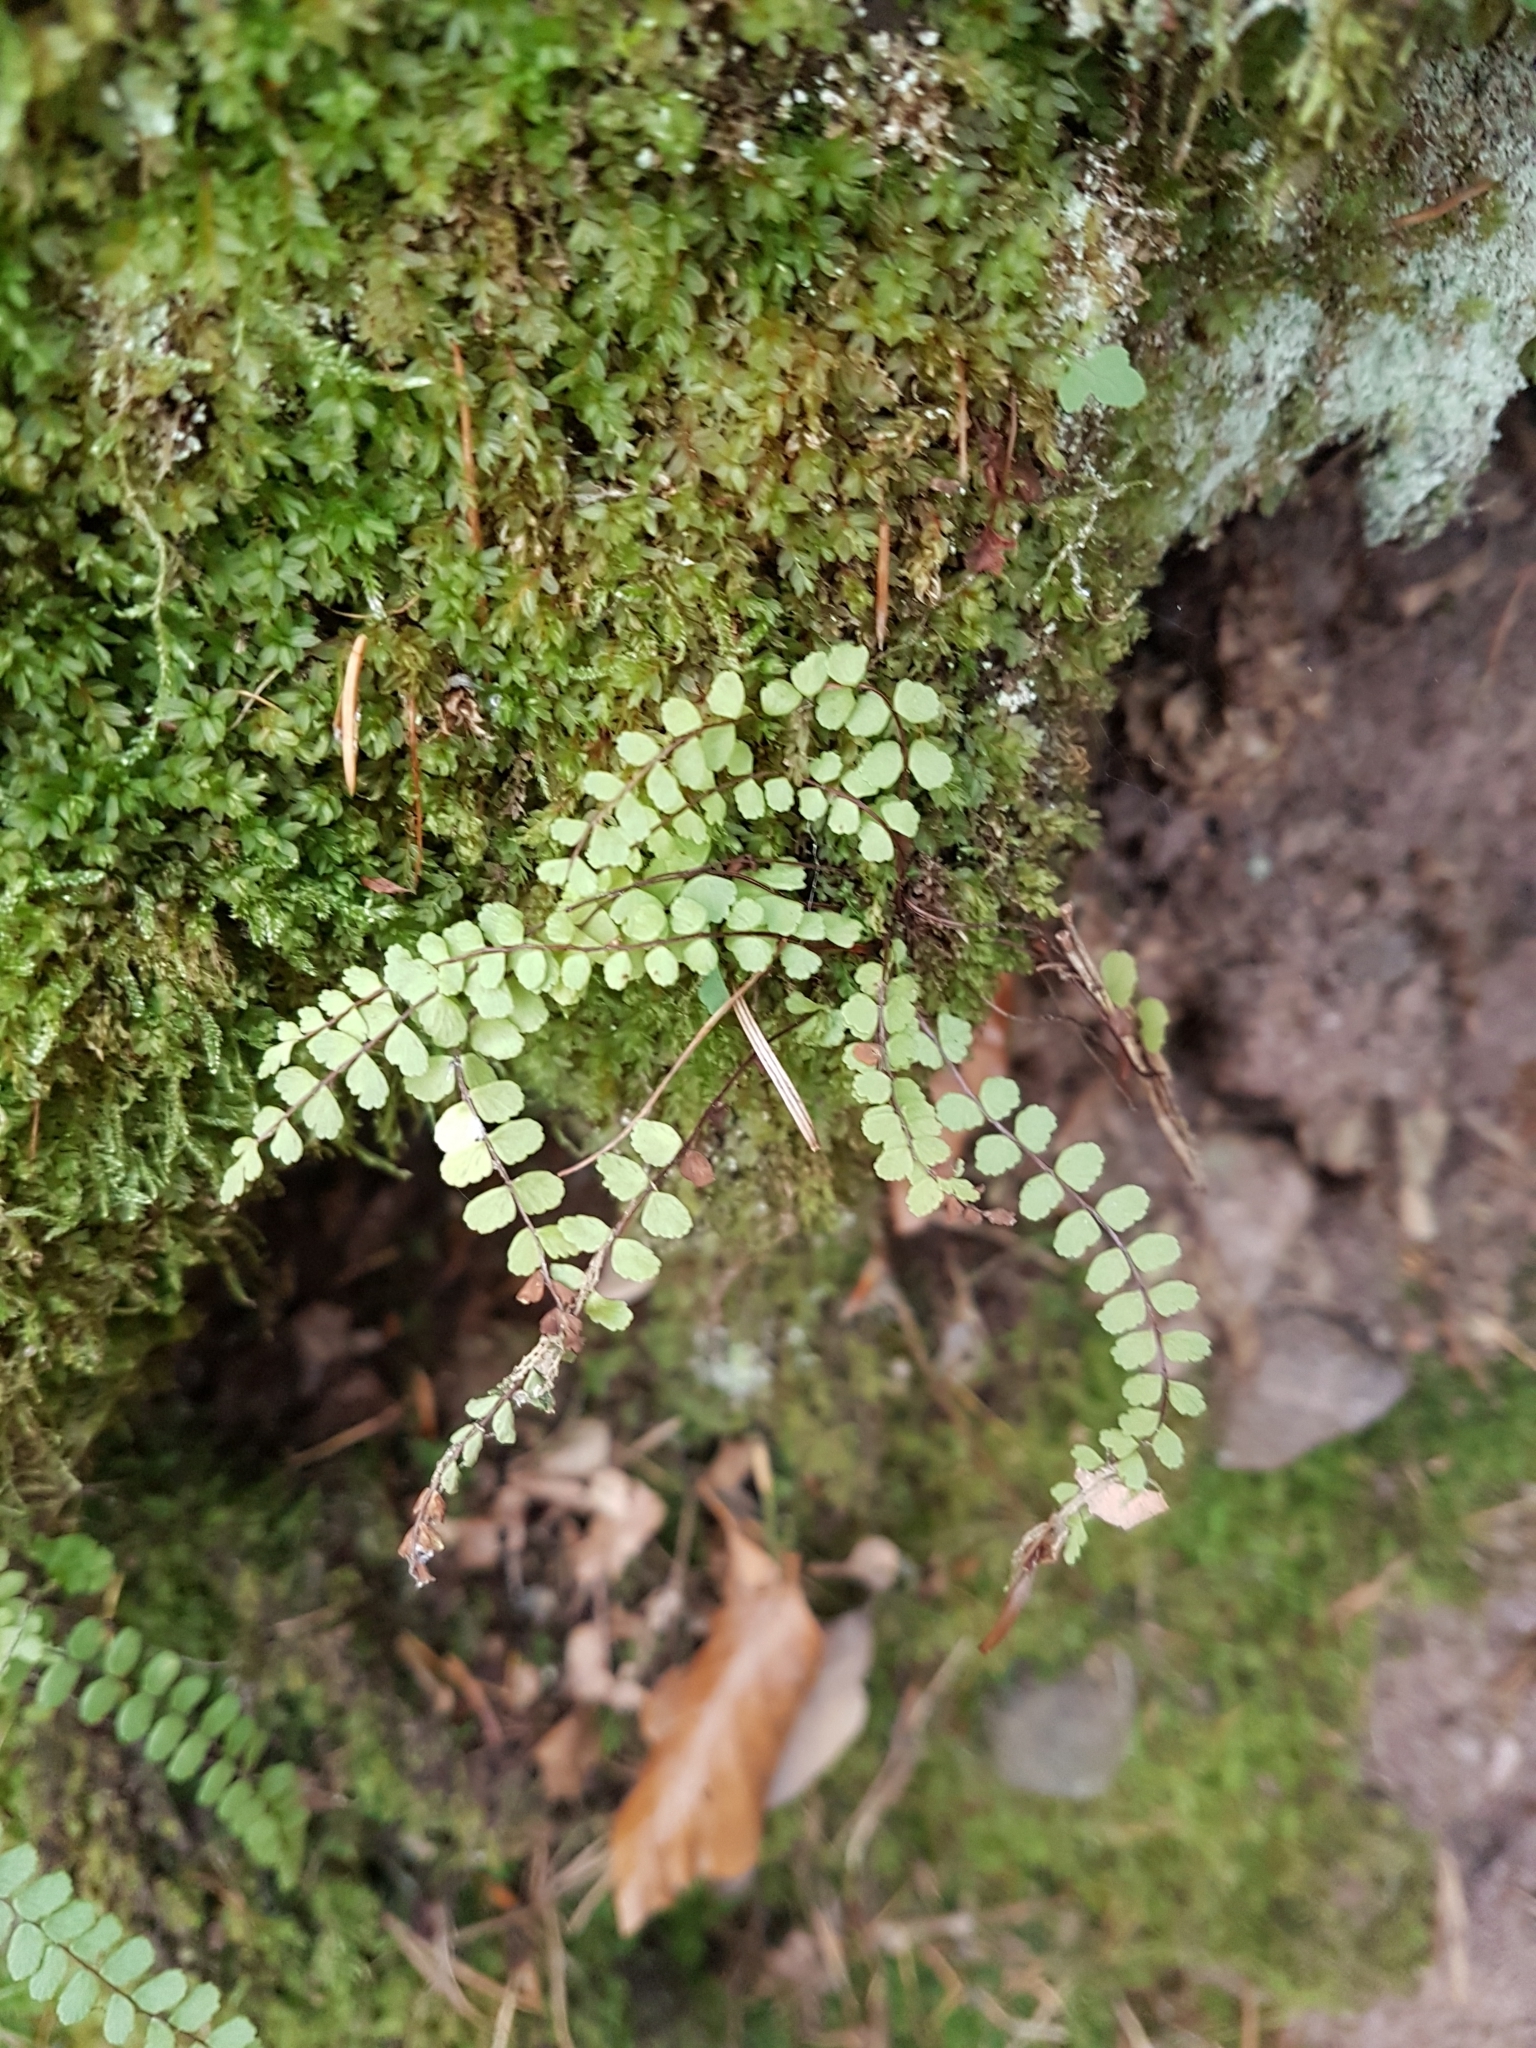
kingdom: Plantae
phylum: Tracheophyta
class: Polypodiopsida
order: Polypodiales
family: Aspleniaceae
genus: Asplenium
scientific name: Asplenium trichomanes
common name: Maidenhair spleenwort
